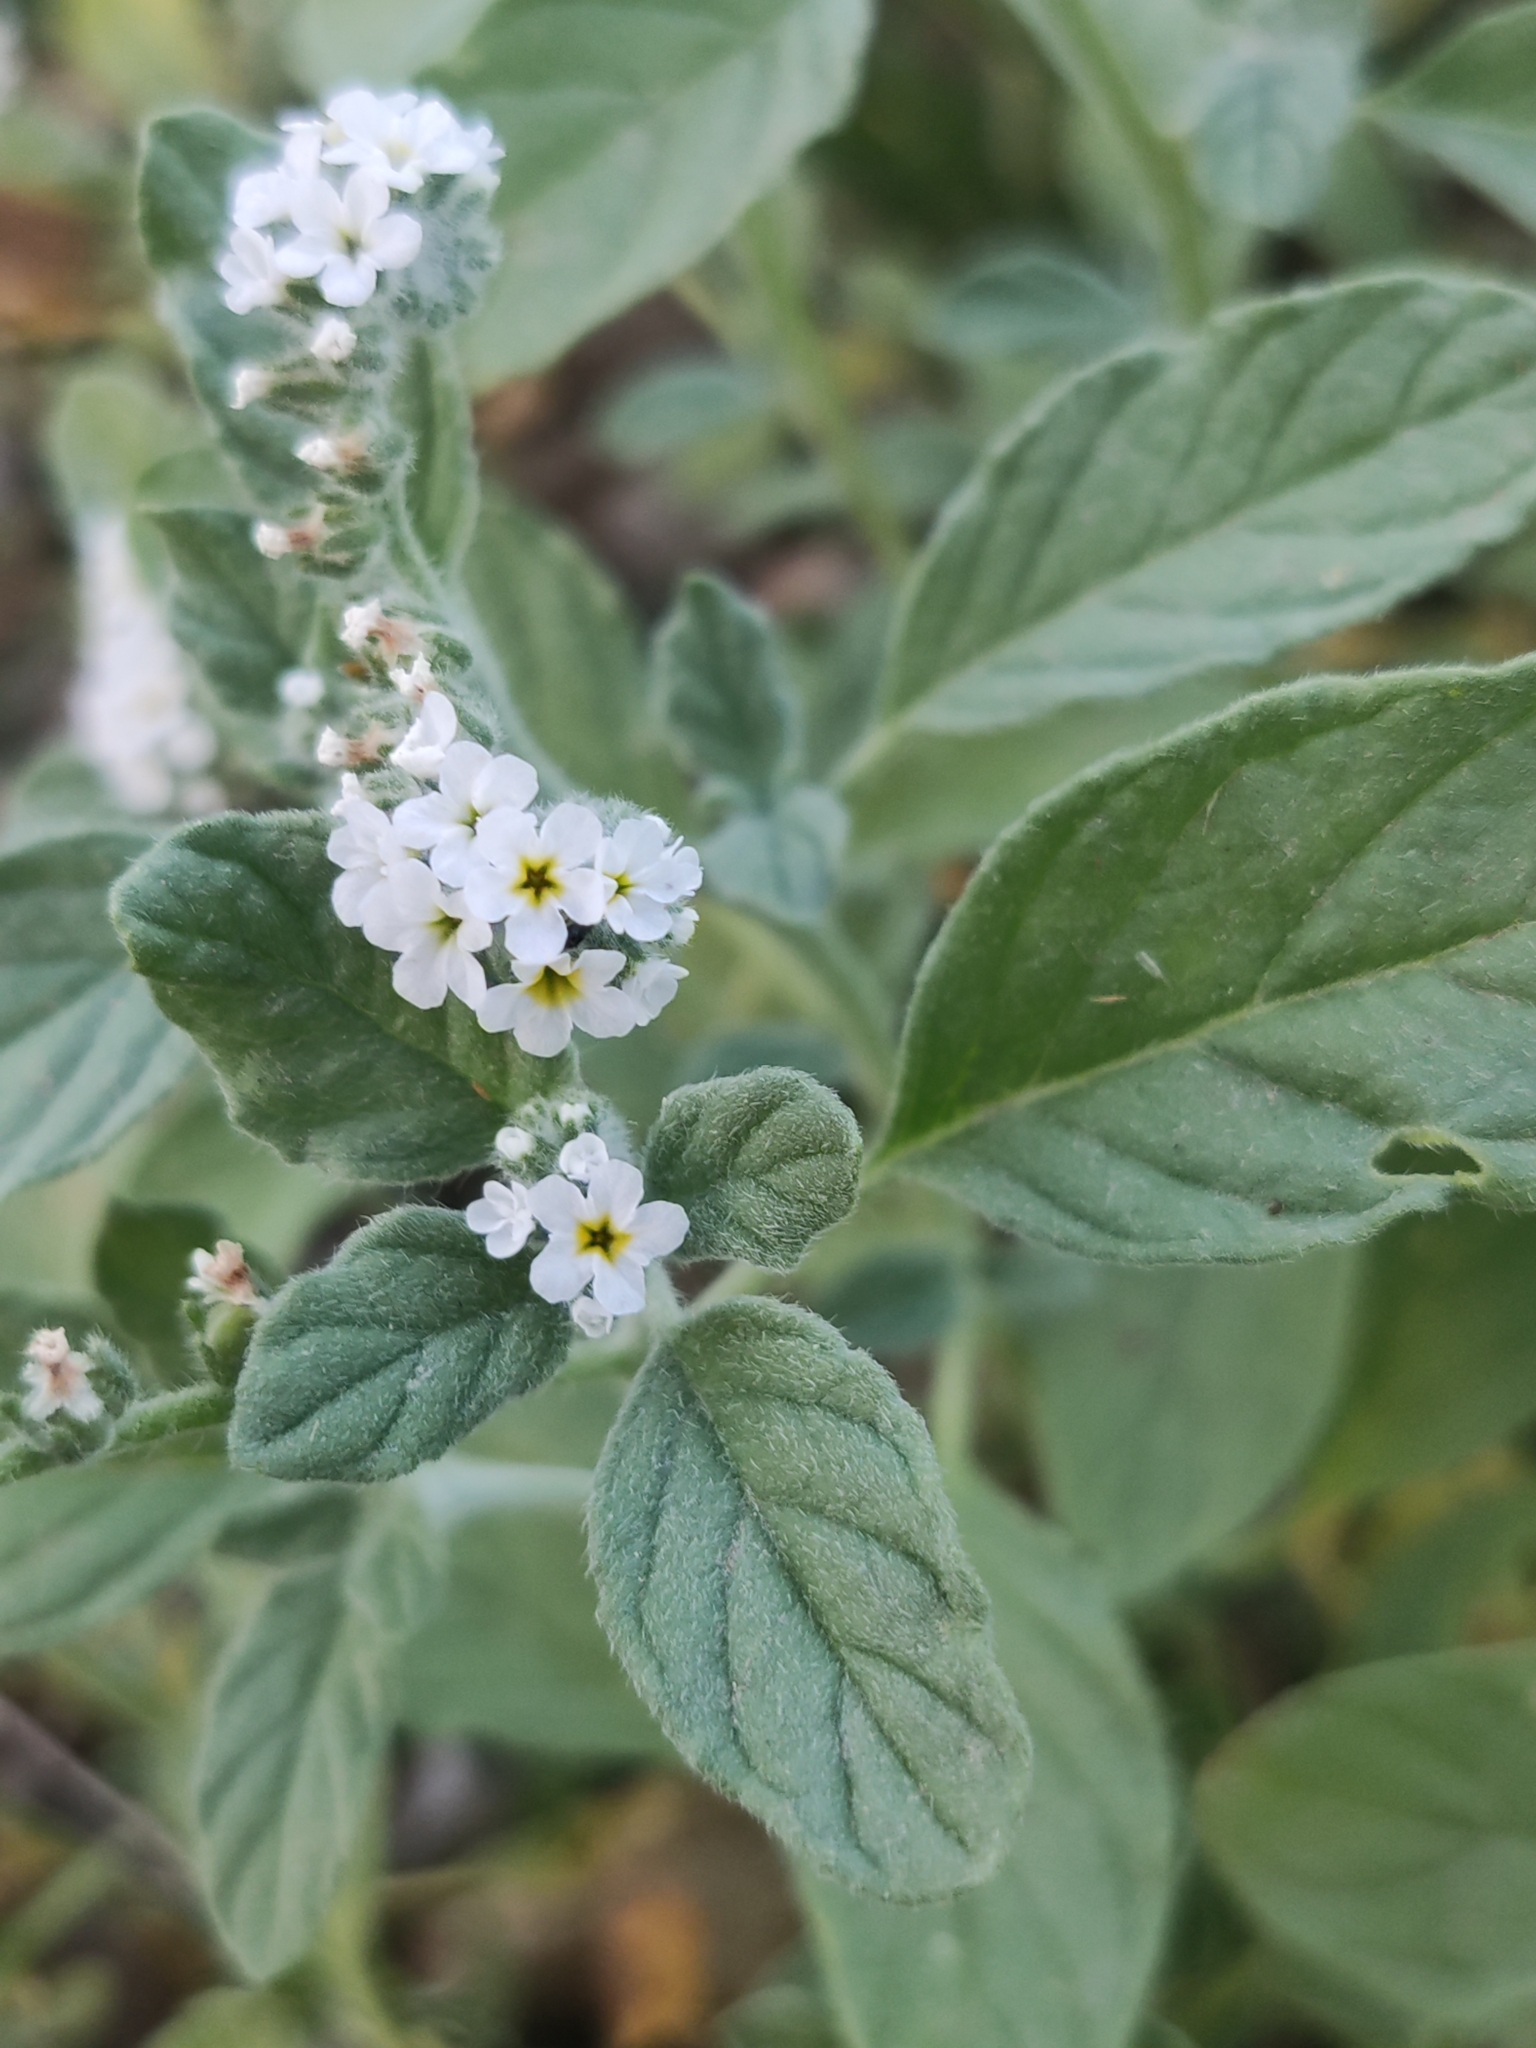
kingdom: Plantae
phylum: Tracheophyta
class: Magnoliopsida
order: Boraginales
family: Heliotropiaceae
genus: Heliotropium
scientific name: Heliotropium europaeum
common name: European heliotrope
